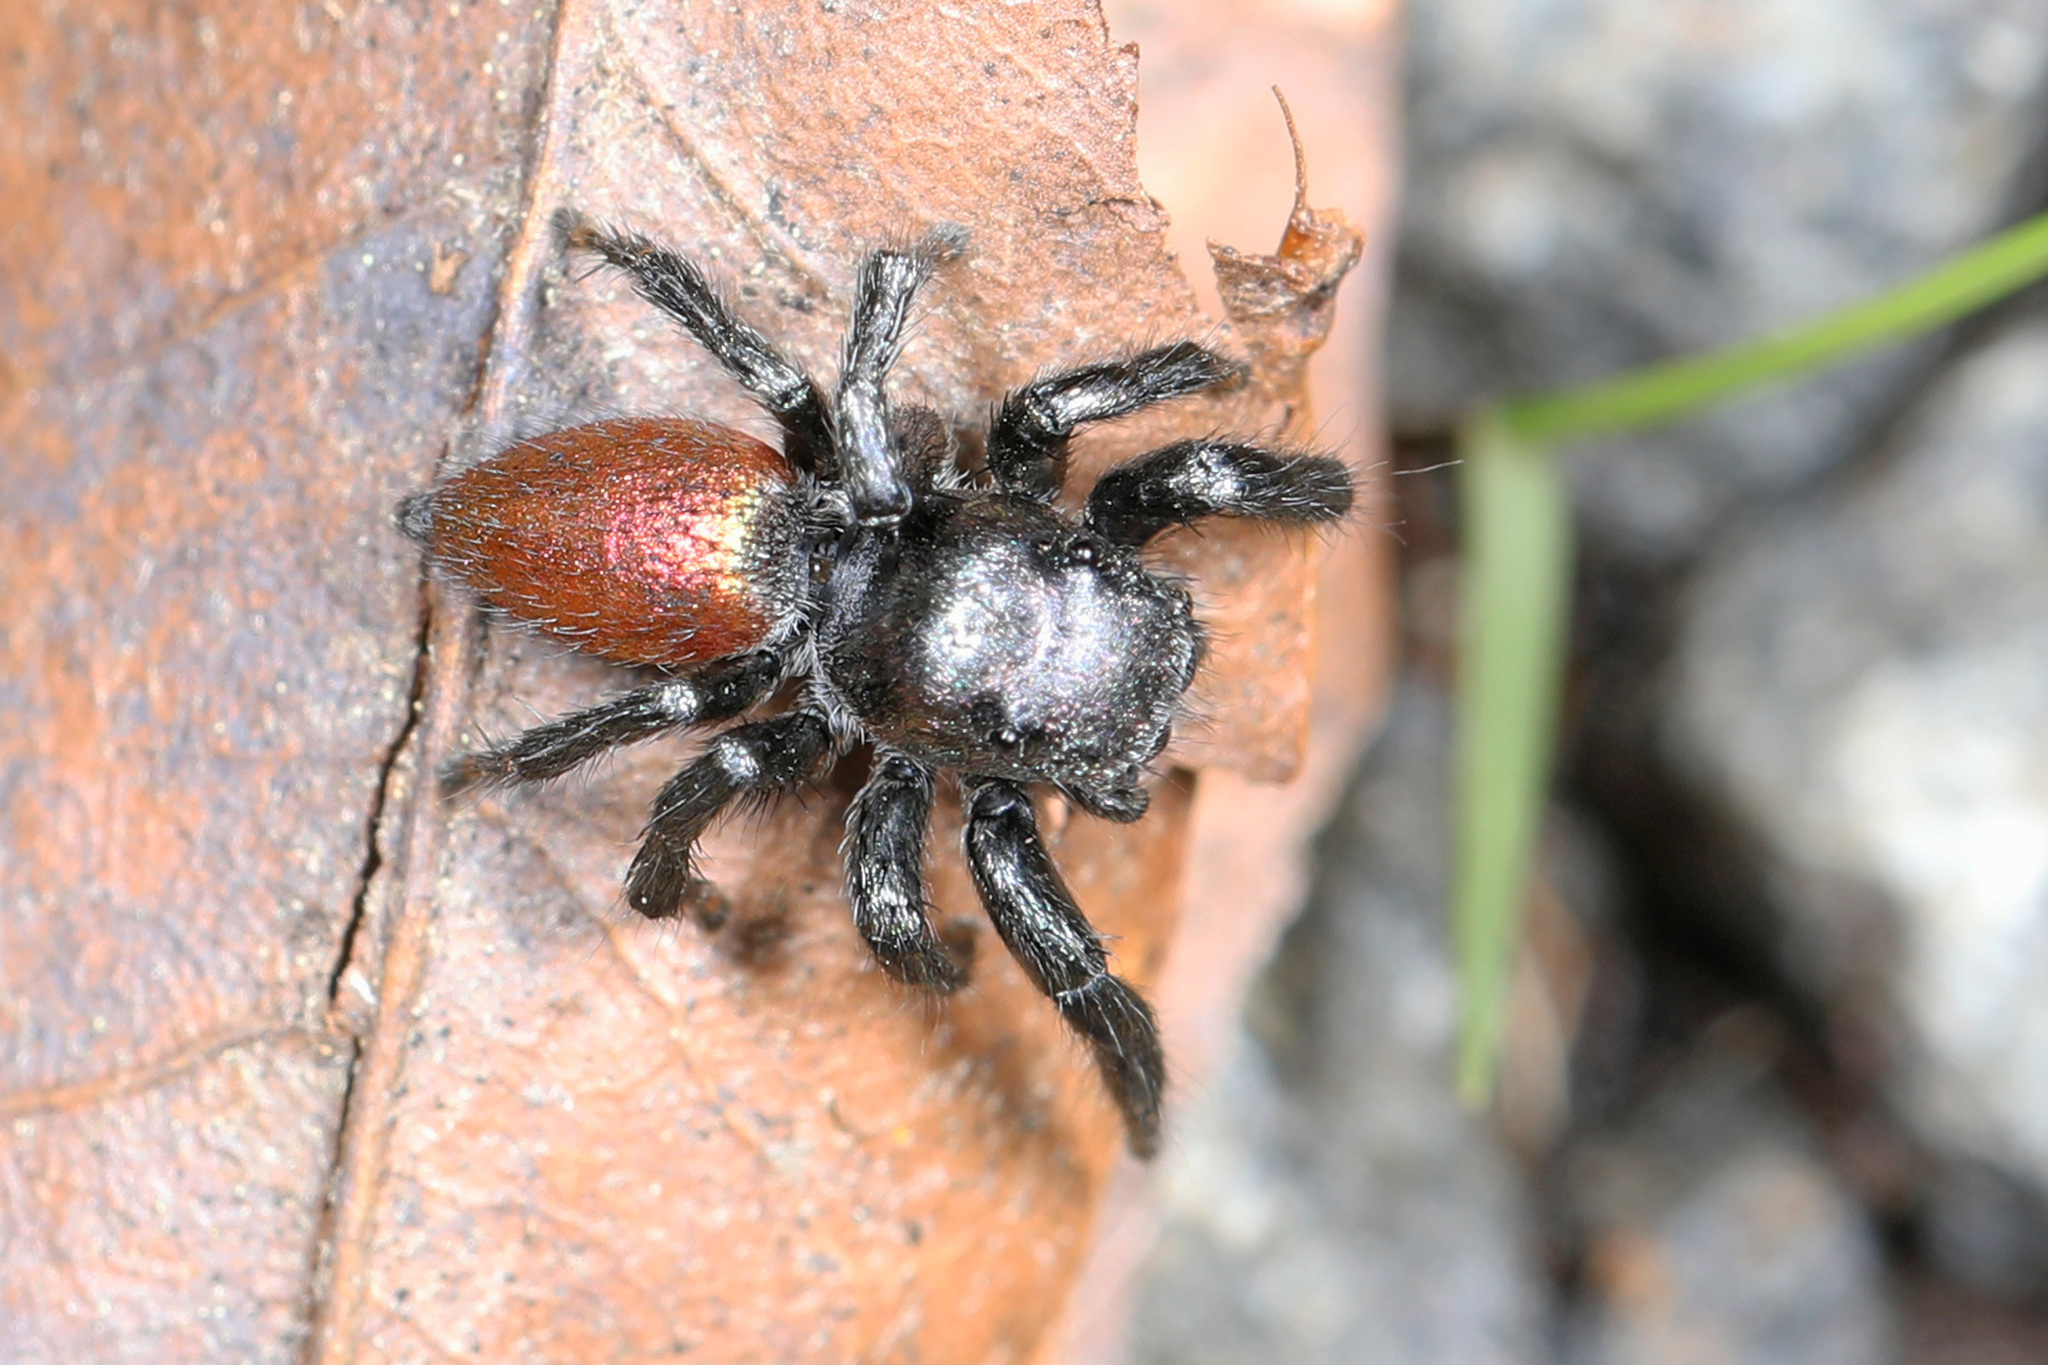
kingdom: Animalia
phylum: Arthropoda
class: Arachnida
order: Araneae
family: Salticidae
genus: Habronattus
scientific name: Habronattus decorus
